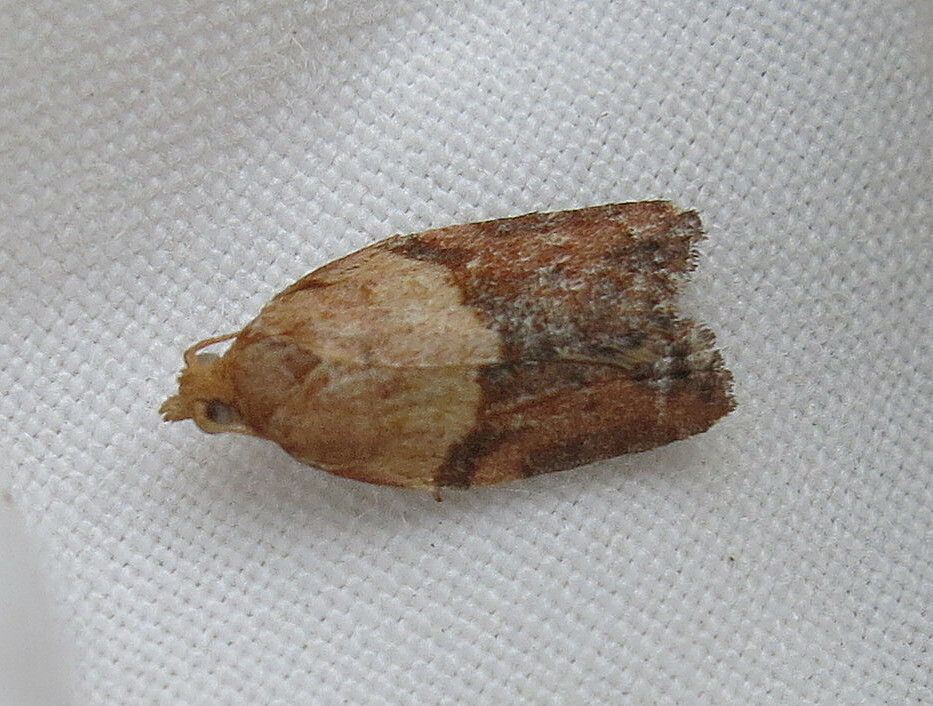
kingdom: Animalia
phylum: Arthropoda
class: Insecta
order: Lepidoptera
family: Tortricidae
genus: Epiphyas
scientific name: Epiphyas postvittana
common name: Light brown apple moth
